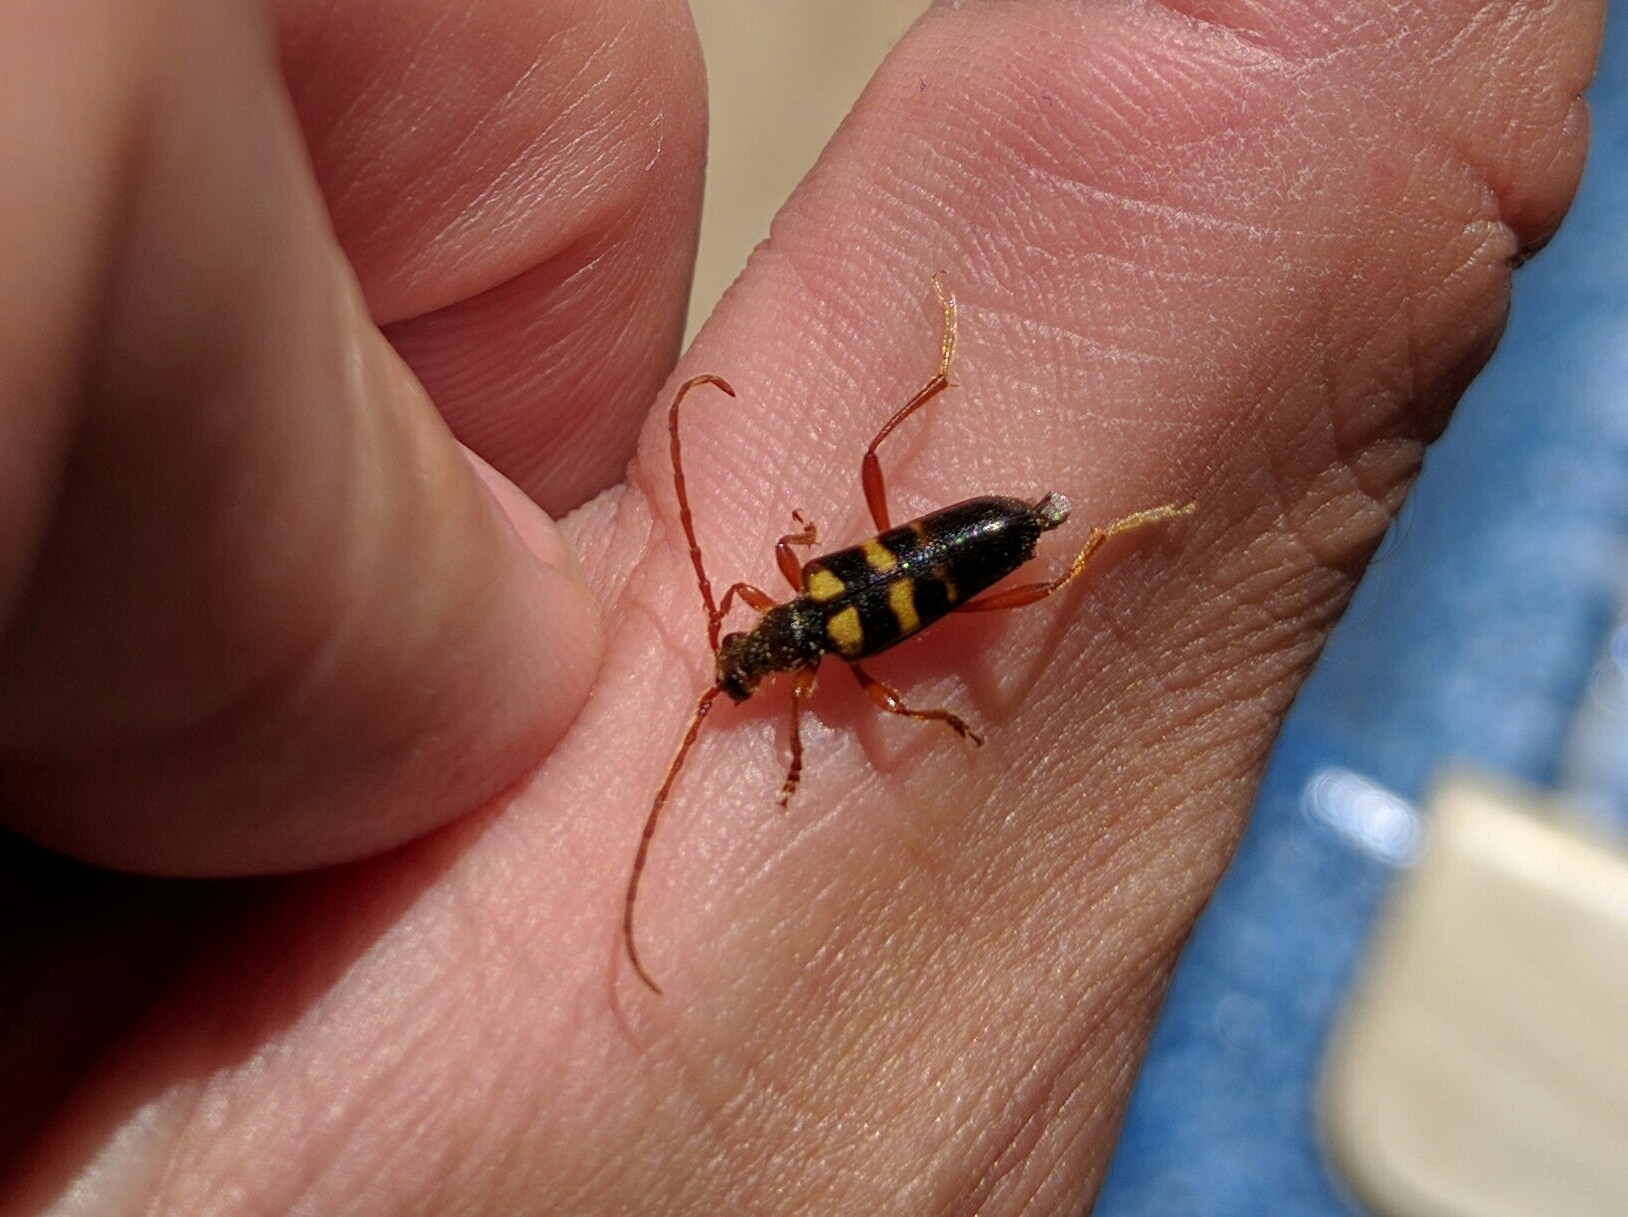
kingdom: Animalia
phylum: Arthropoda
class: Insecta
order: Coleoptera
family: Cerambycidae
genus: Xestoleptura
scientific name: Xestoleptura crassicornis
